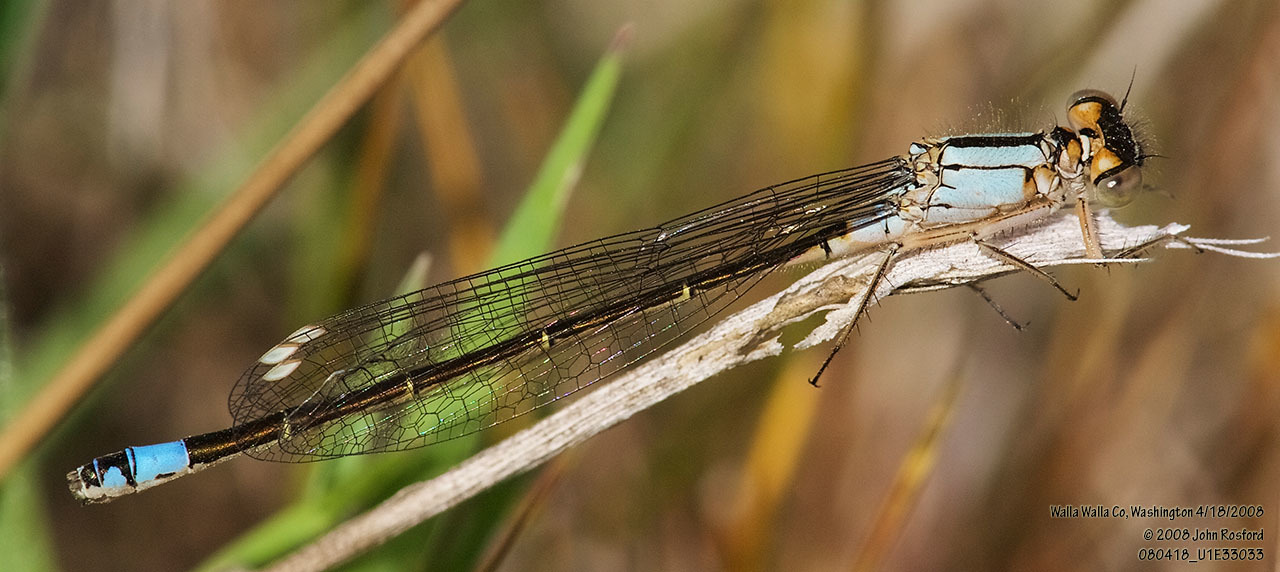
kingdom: Animalia
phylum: Arthropoda
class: Insecta
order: Odonata
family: Coenagrionidae
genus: Ischnura
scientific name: Ischnura cervula
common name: Pacific forktail
